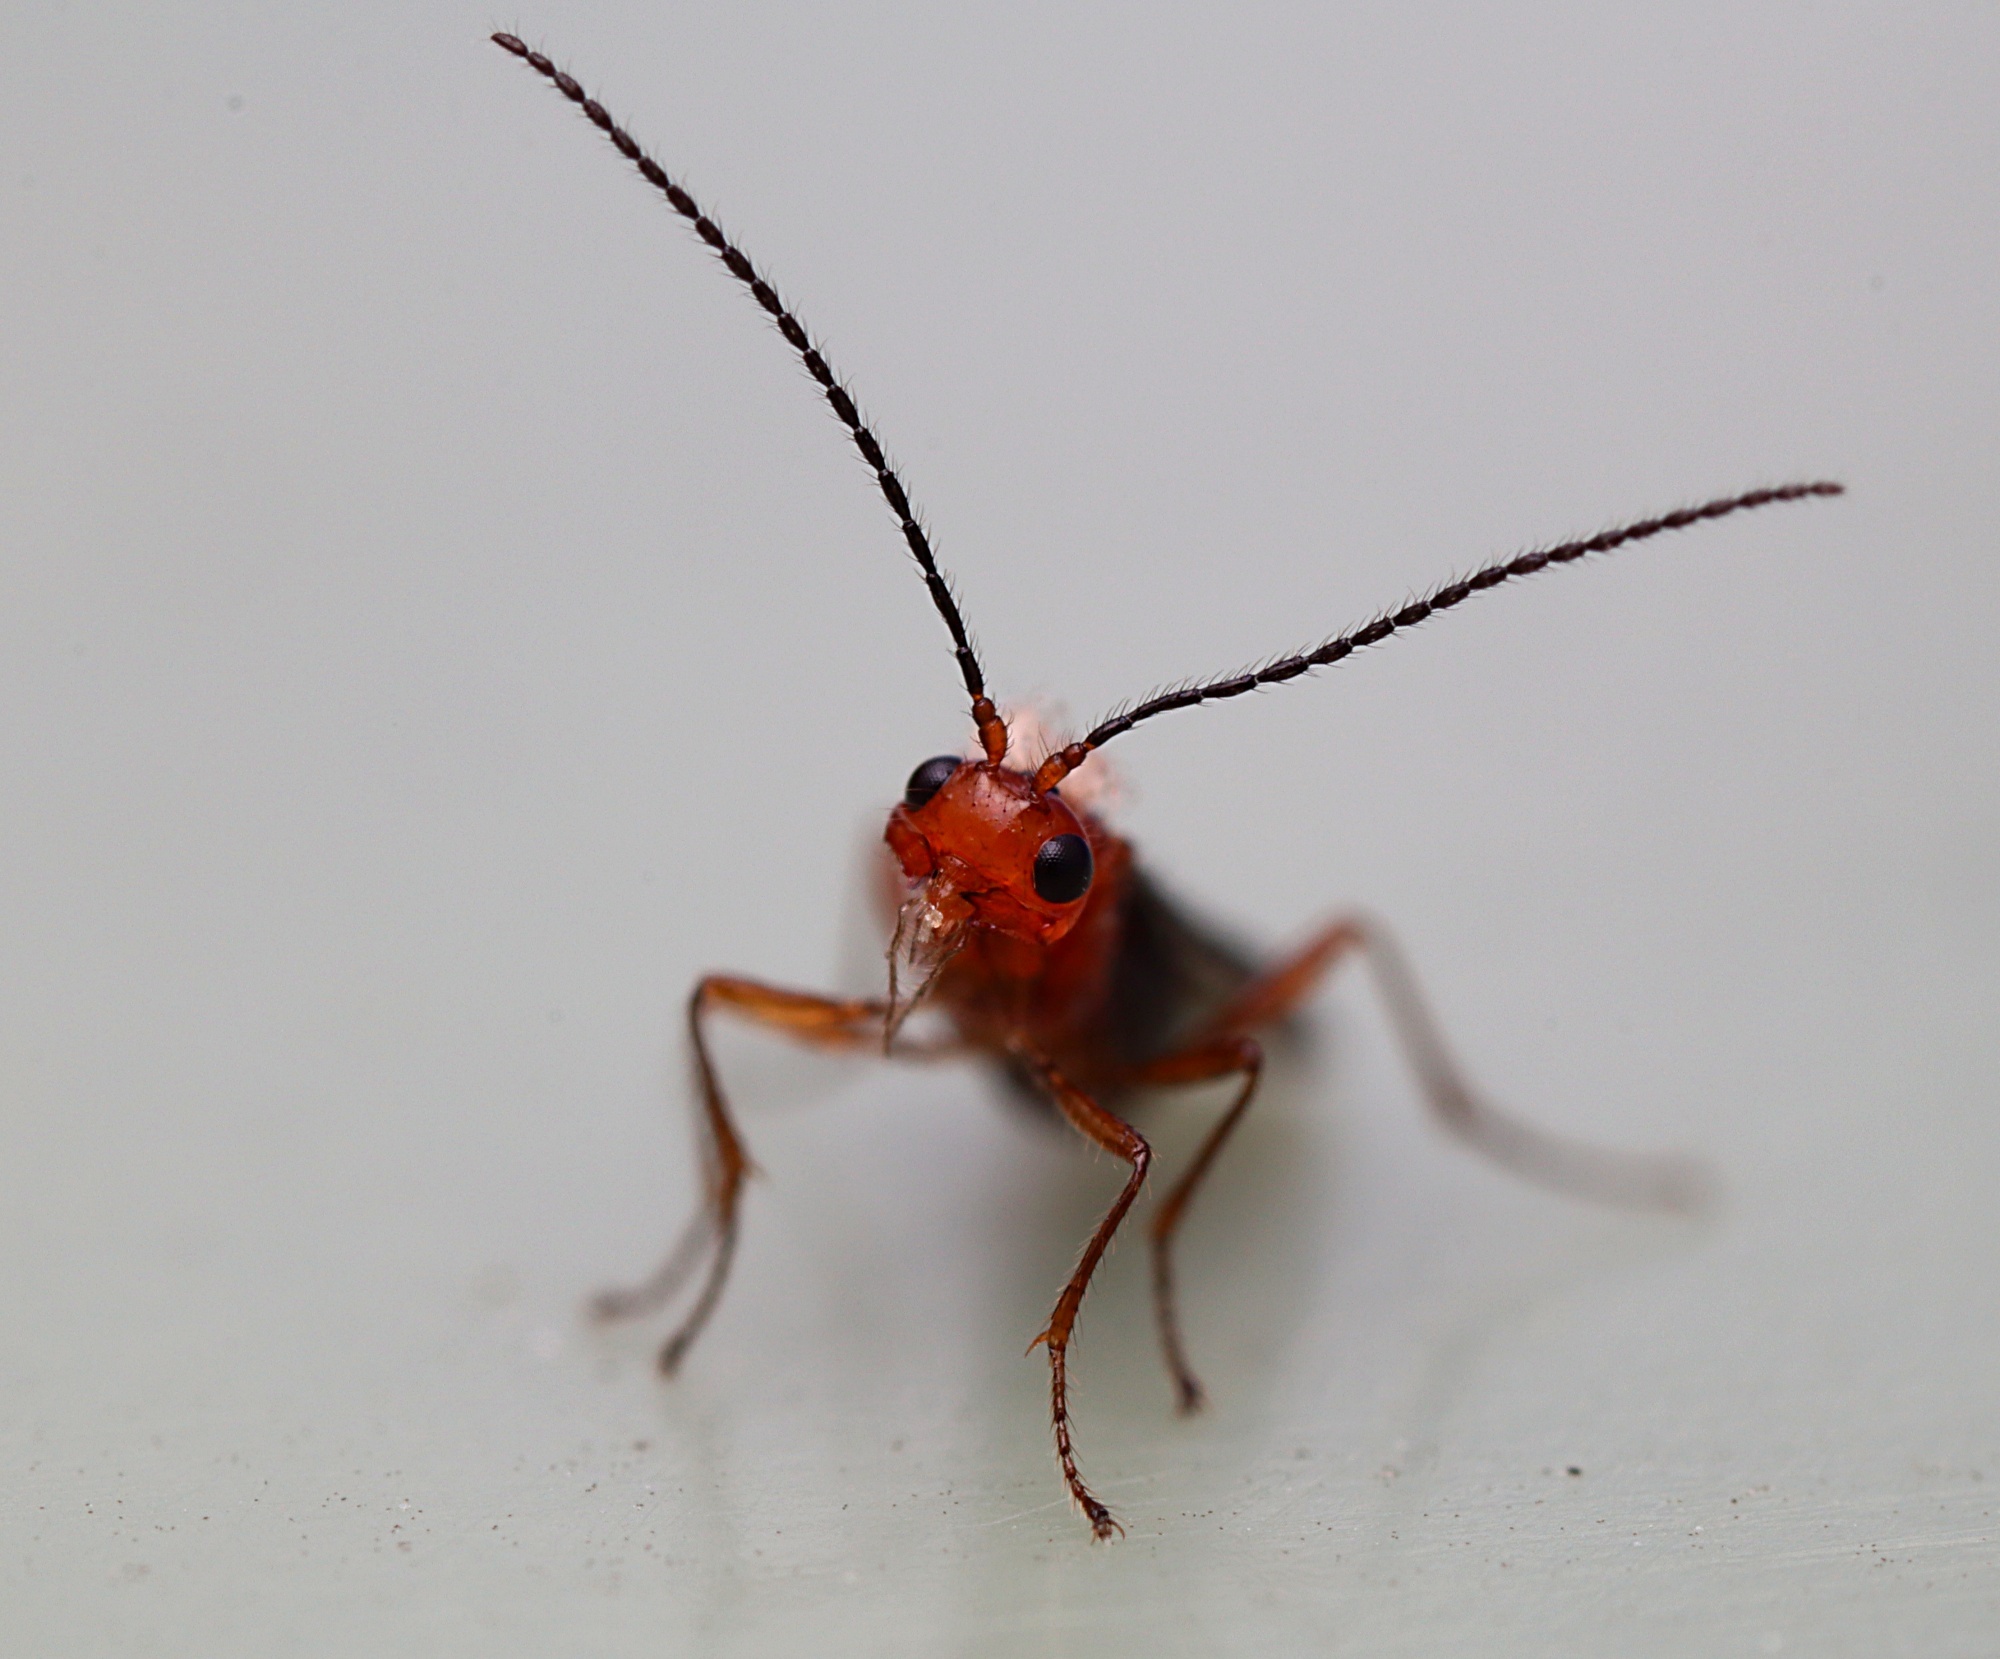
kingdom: Animalia
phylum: Arthropoda
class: Insecta
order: Hymenoptera
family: Braconidae
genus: Asobara
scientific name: Asobara antipoda
